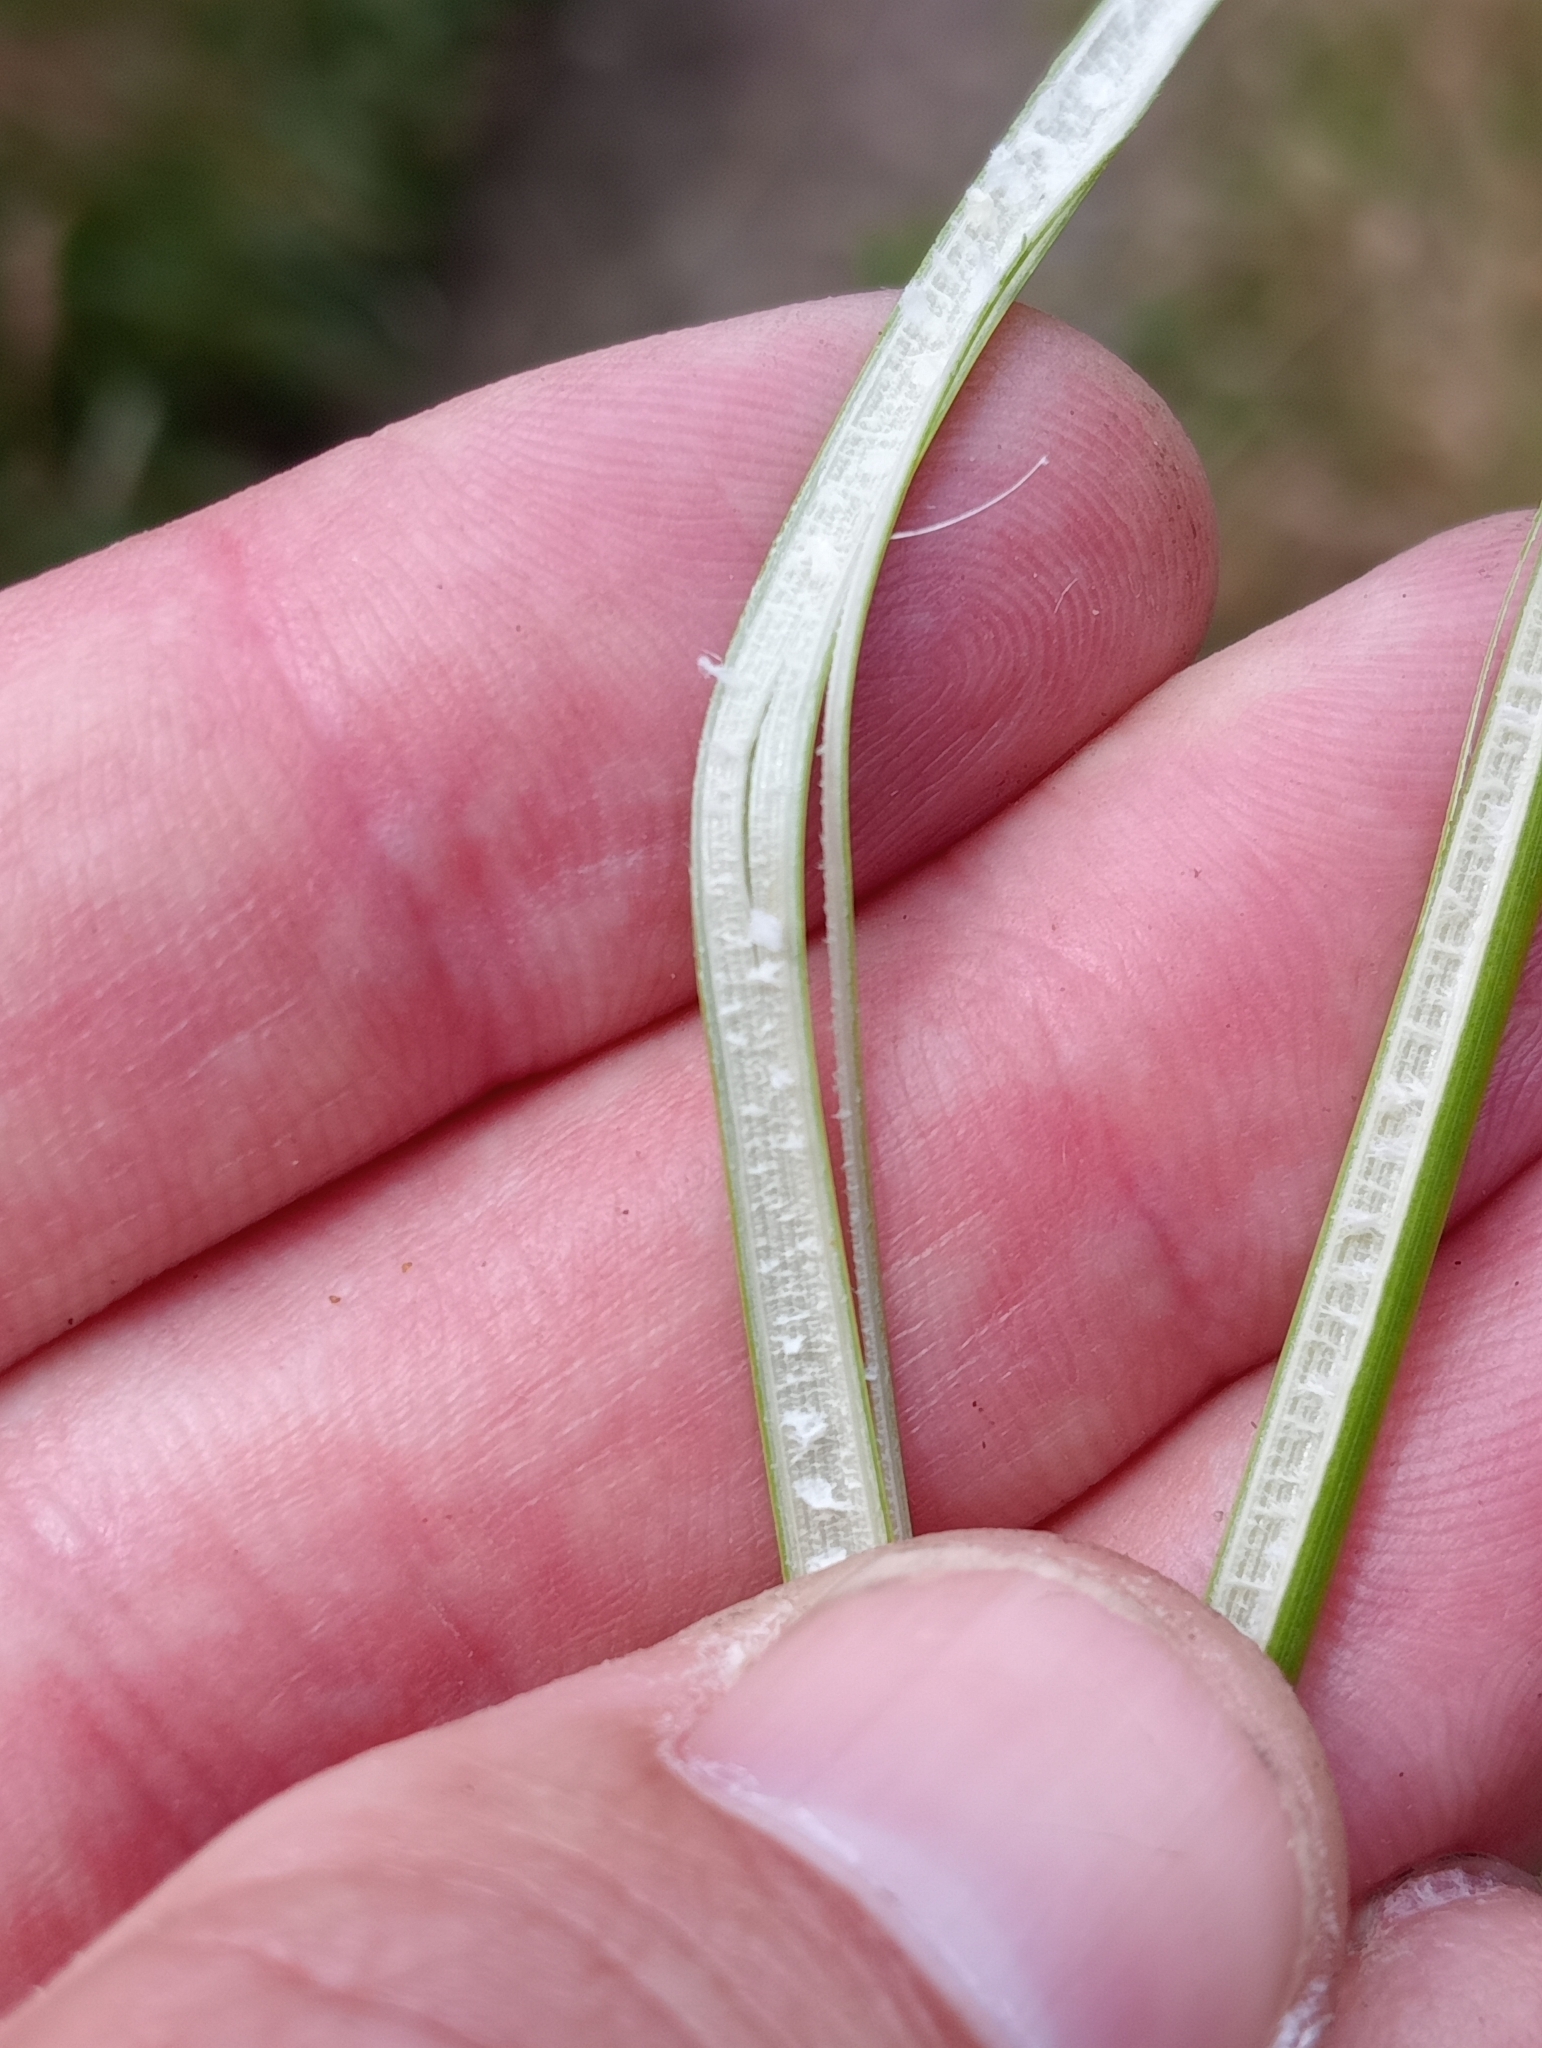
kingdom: Plantae
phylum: Tracheophyta
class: Liliopsida
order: Poales
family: Juncaceae
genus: Juncus
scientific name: Juncus australis
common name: Austral rush
